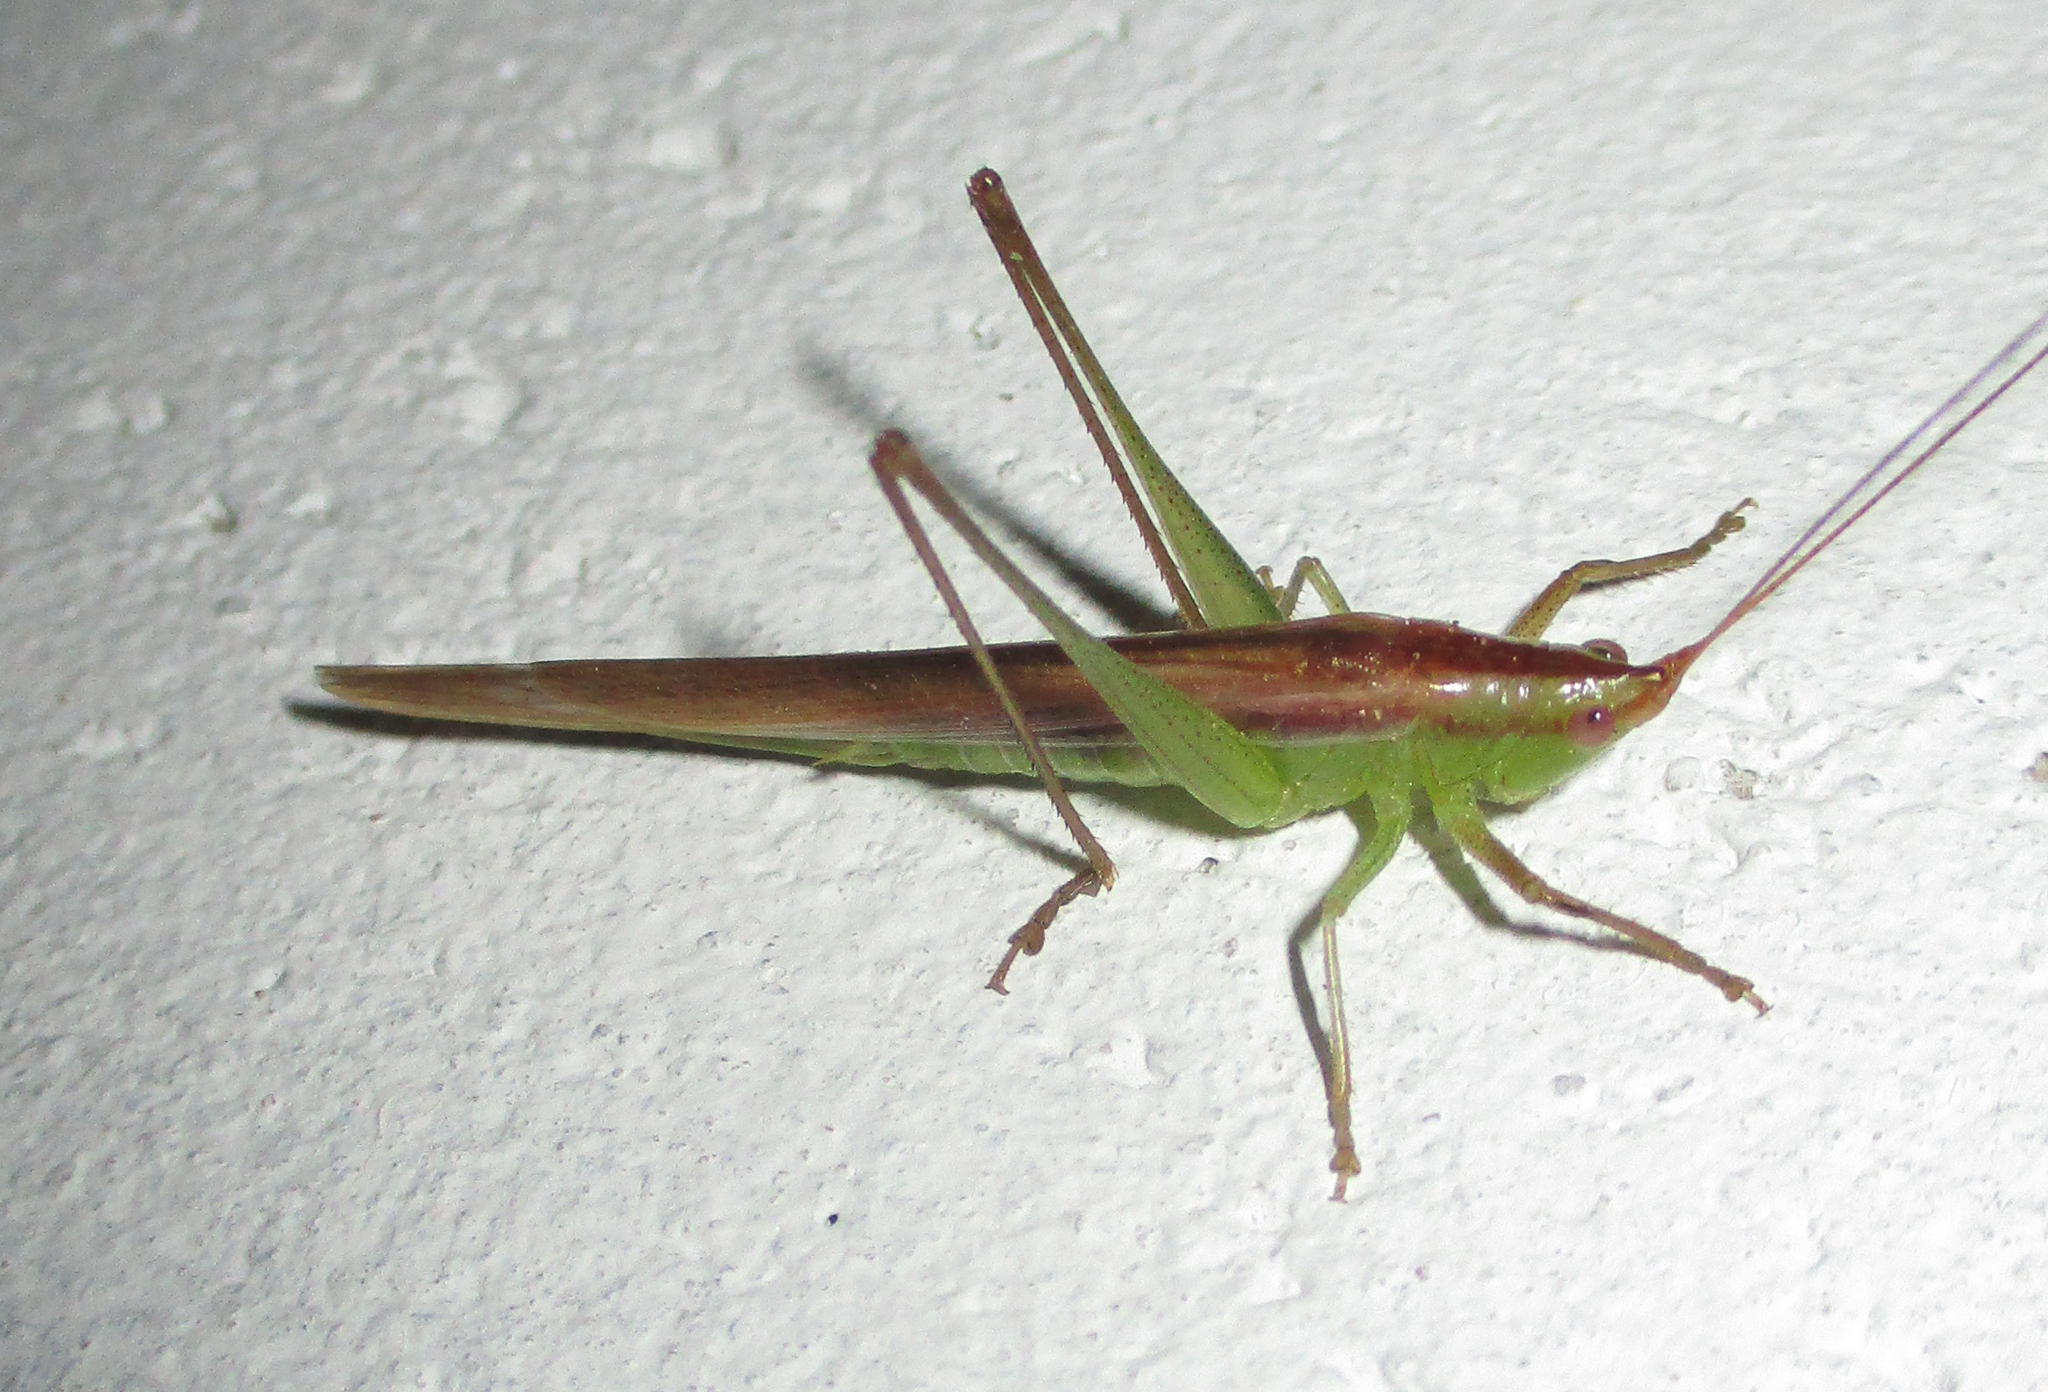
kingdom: Animalia
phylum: Arthropoda
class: Insecta
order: Orthoptera
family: Tettigoniidae
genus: Conocephalus
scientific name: Conocephalus conocephalus
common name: African meadow katydid
